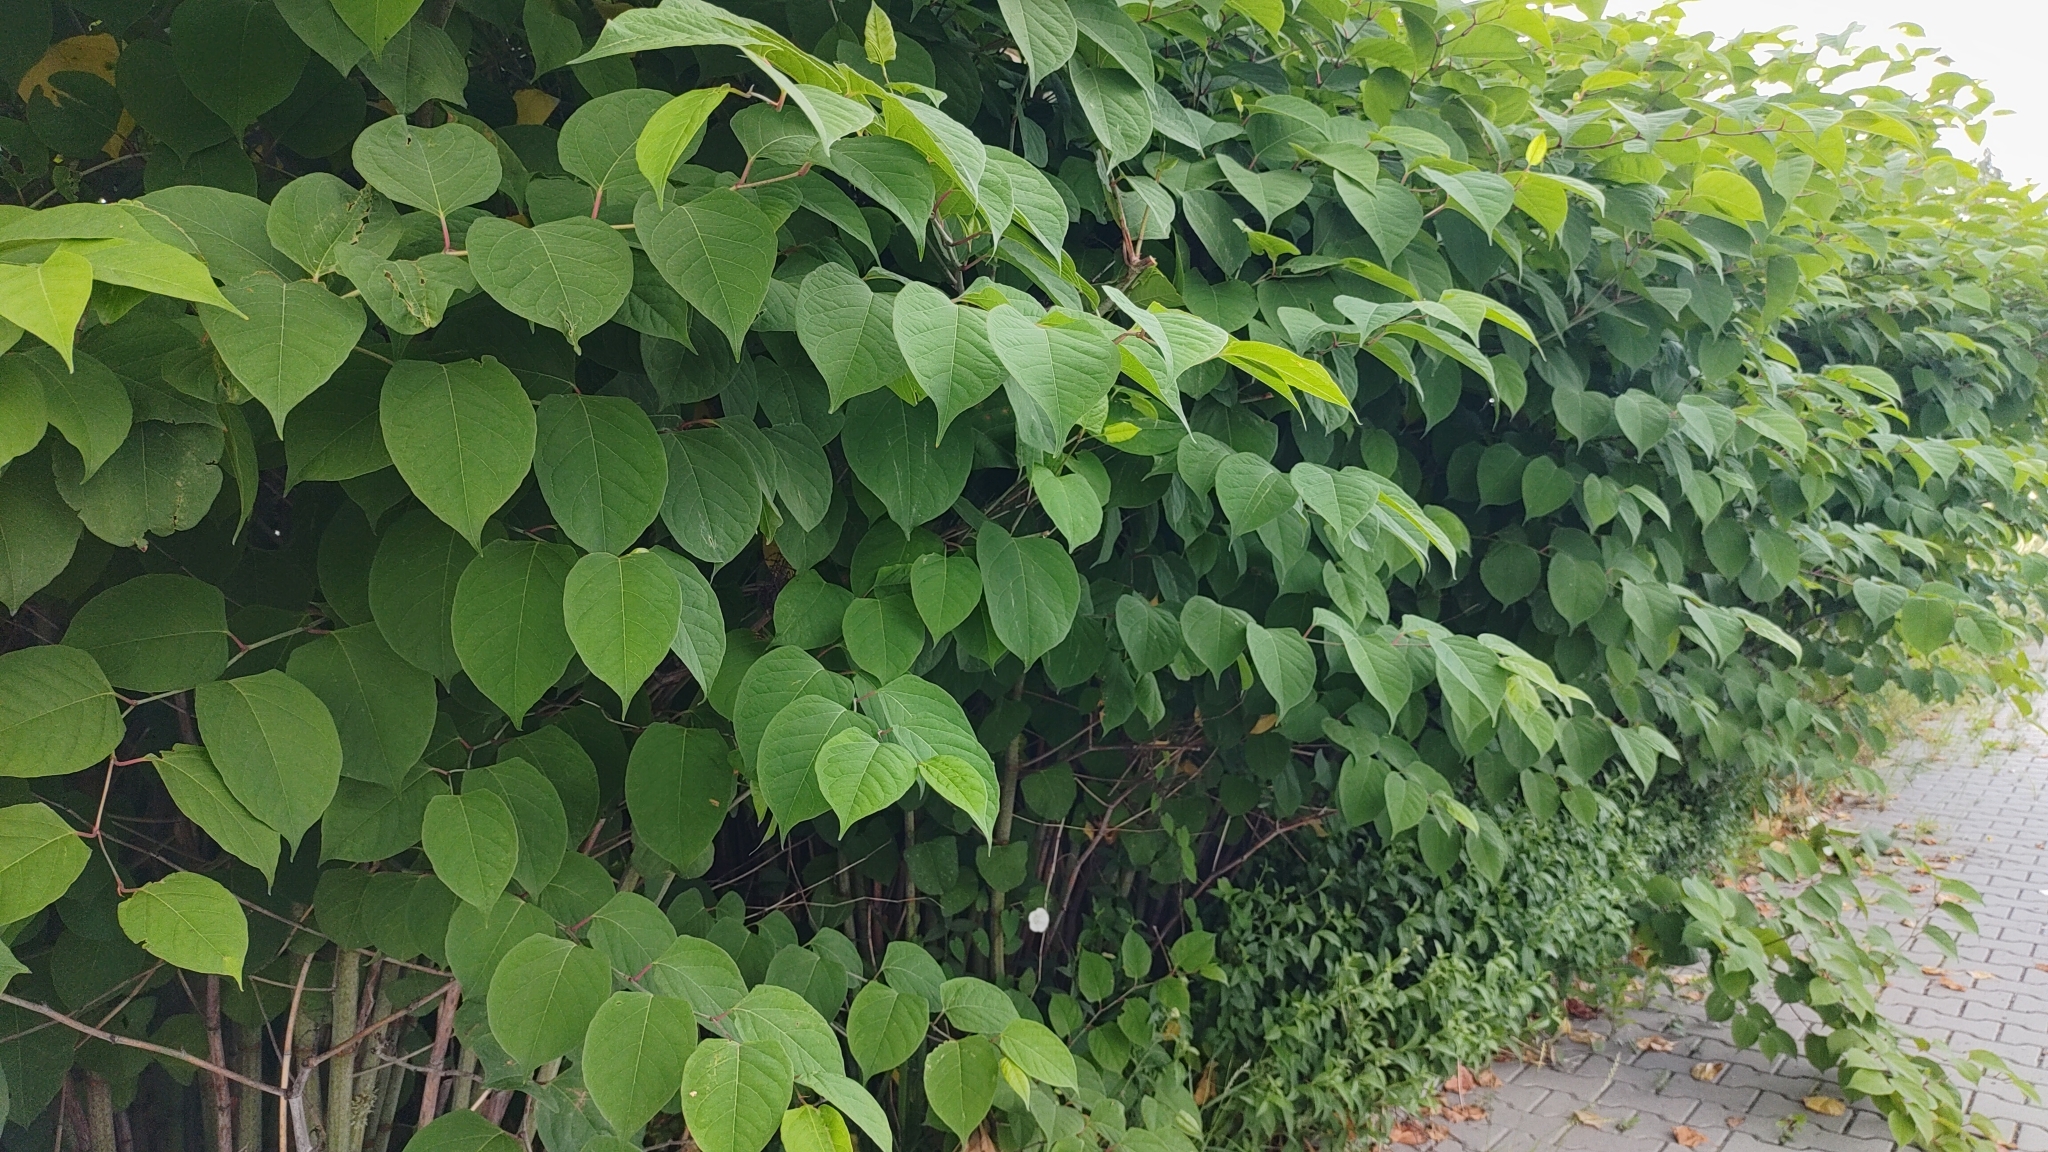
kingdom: Plantae
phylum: Tracheophyta
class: Magnoliopsida
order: Caryophyllales
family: Polygonaceae
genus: Reynoutria
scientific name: Reynoutria japonica
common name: Japanese knotweed
